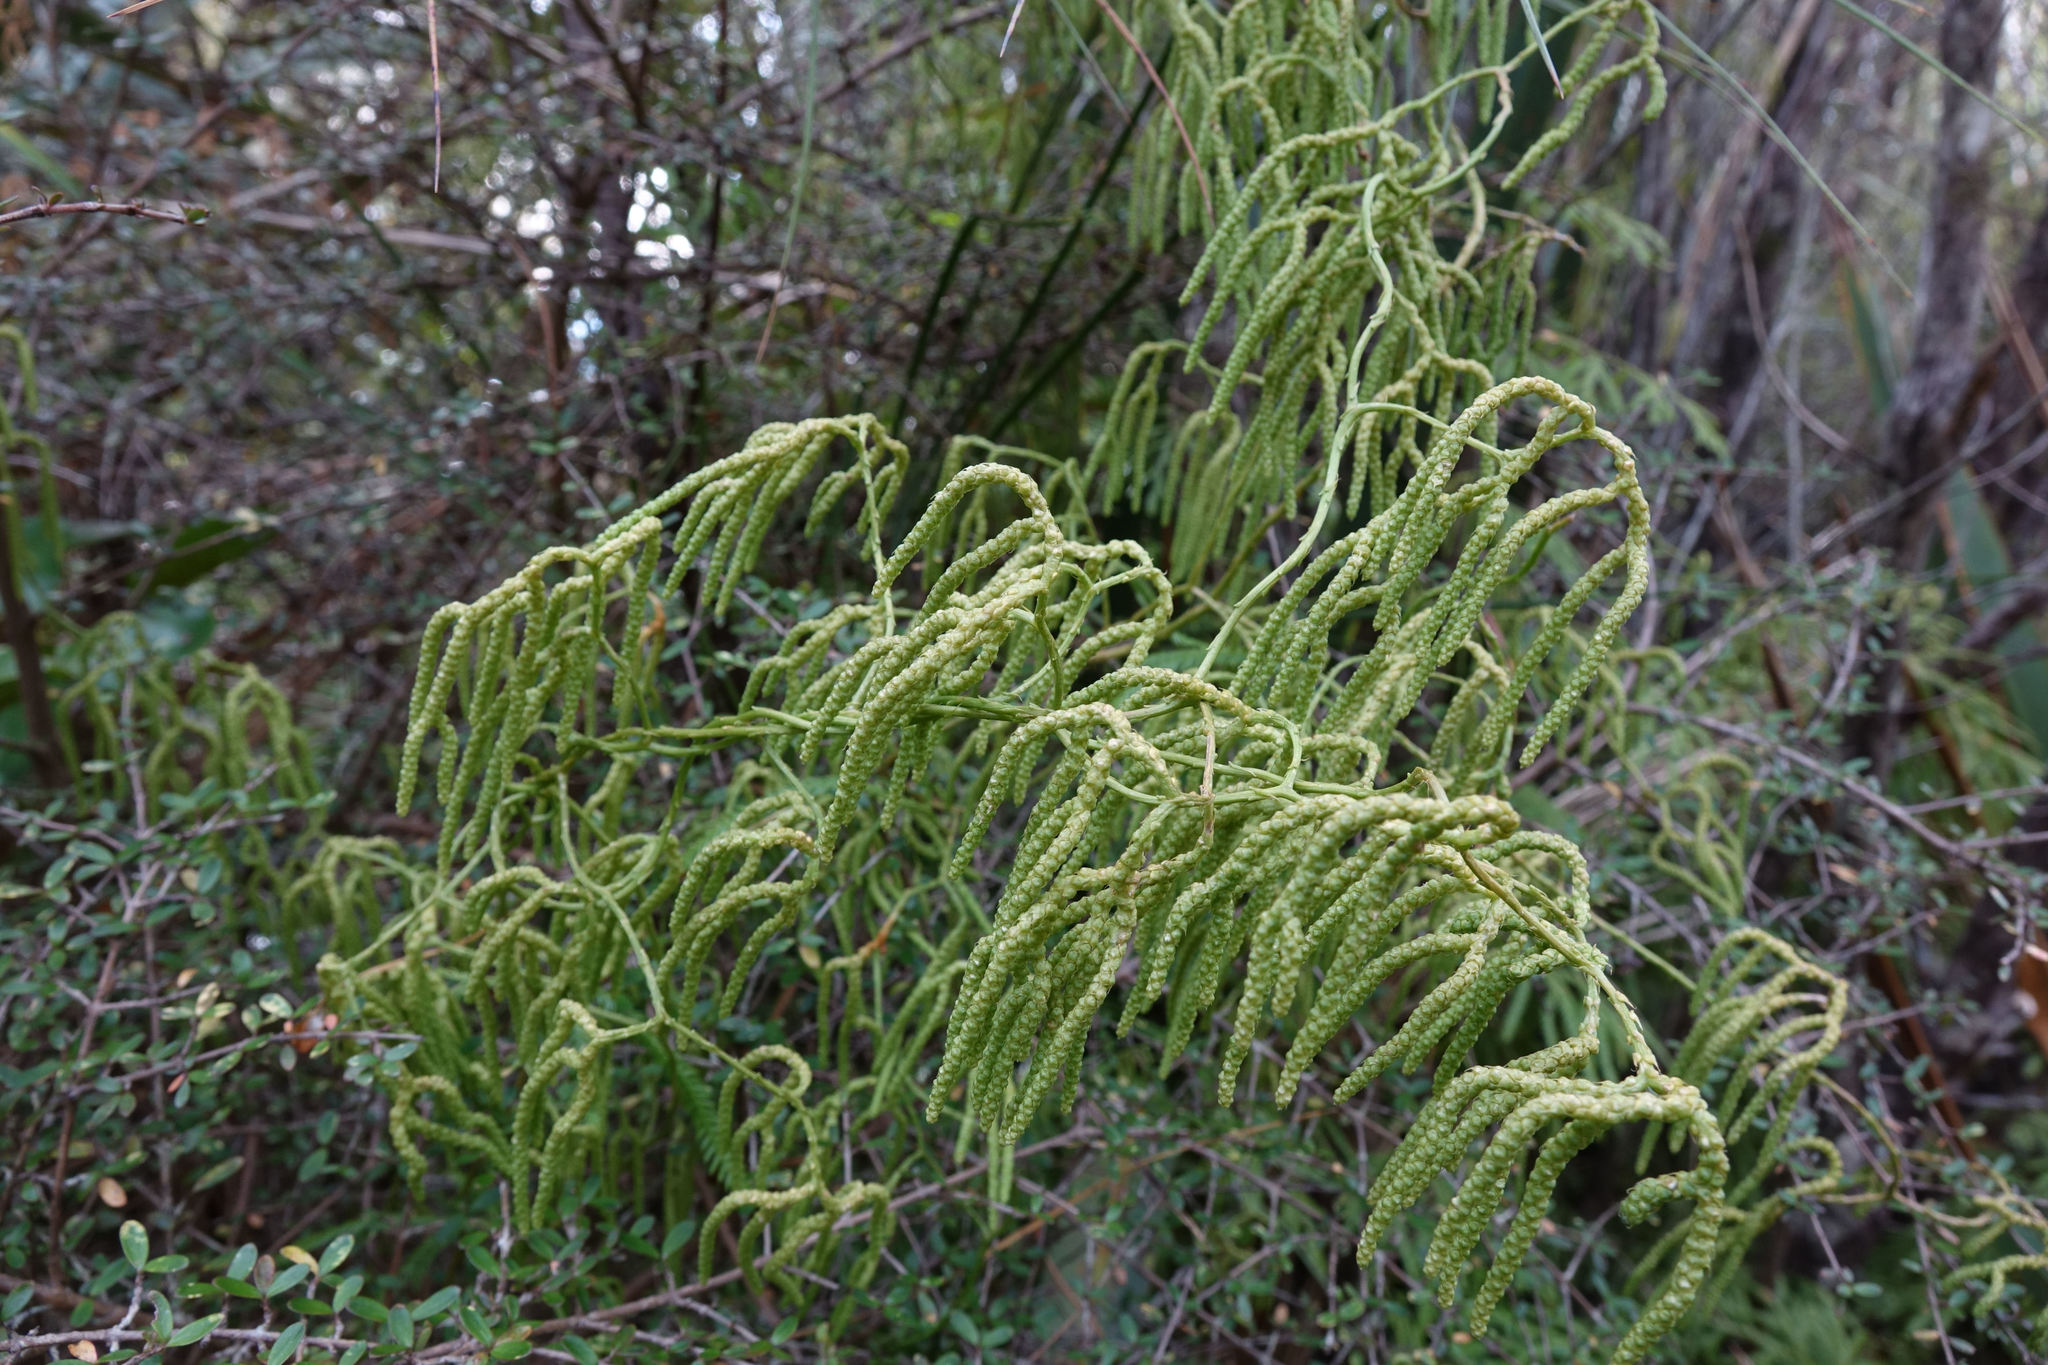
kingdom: Plantae
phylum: Tracheophyta
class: Lycopodiopsida
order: Lycopodiales
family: Lycopodiaceae
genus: Lycopodium
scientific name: Lycopodium volubile
